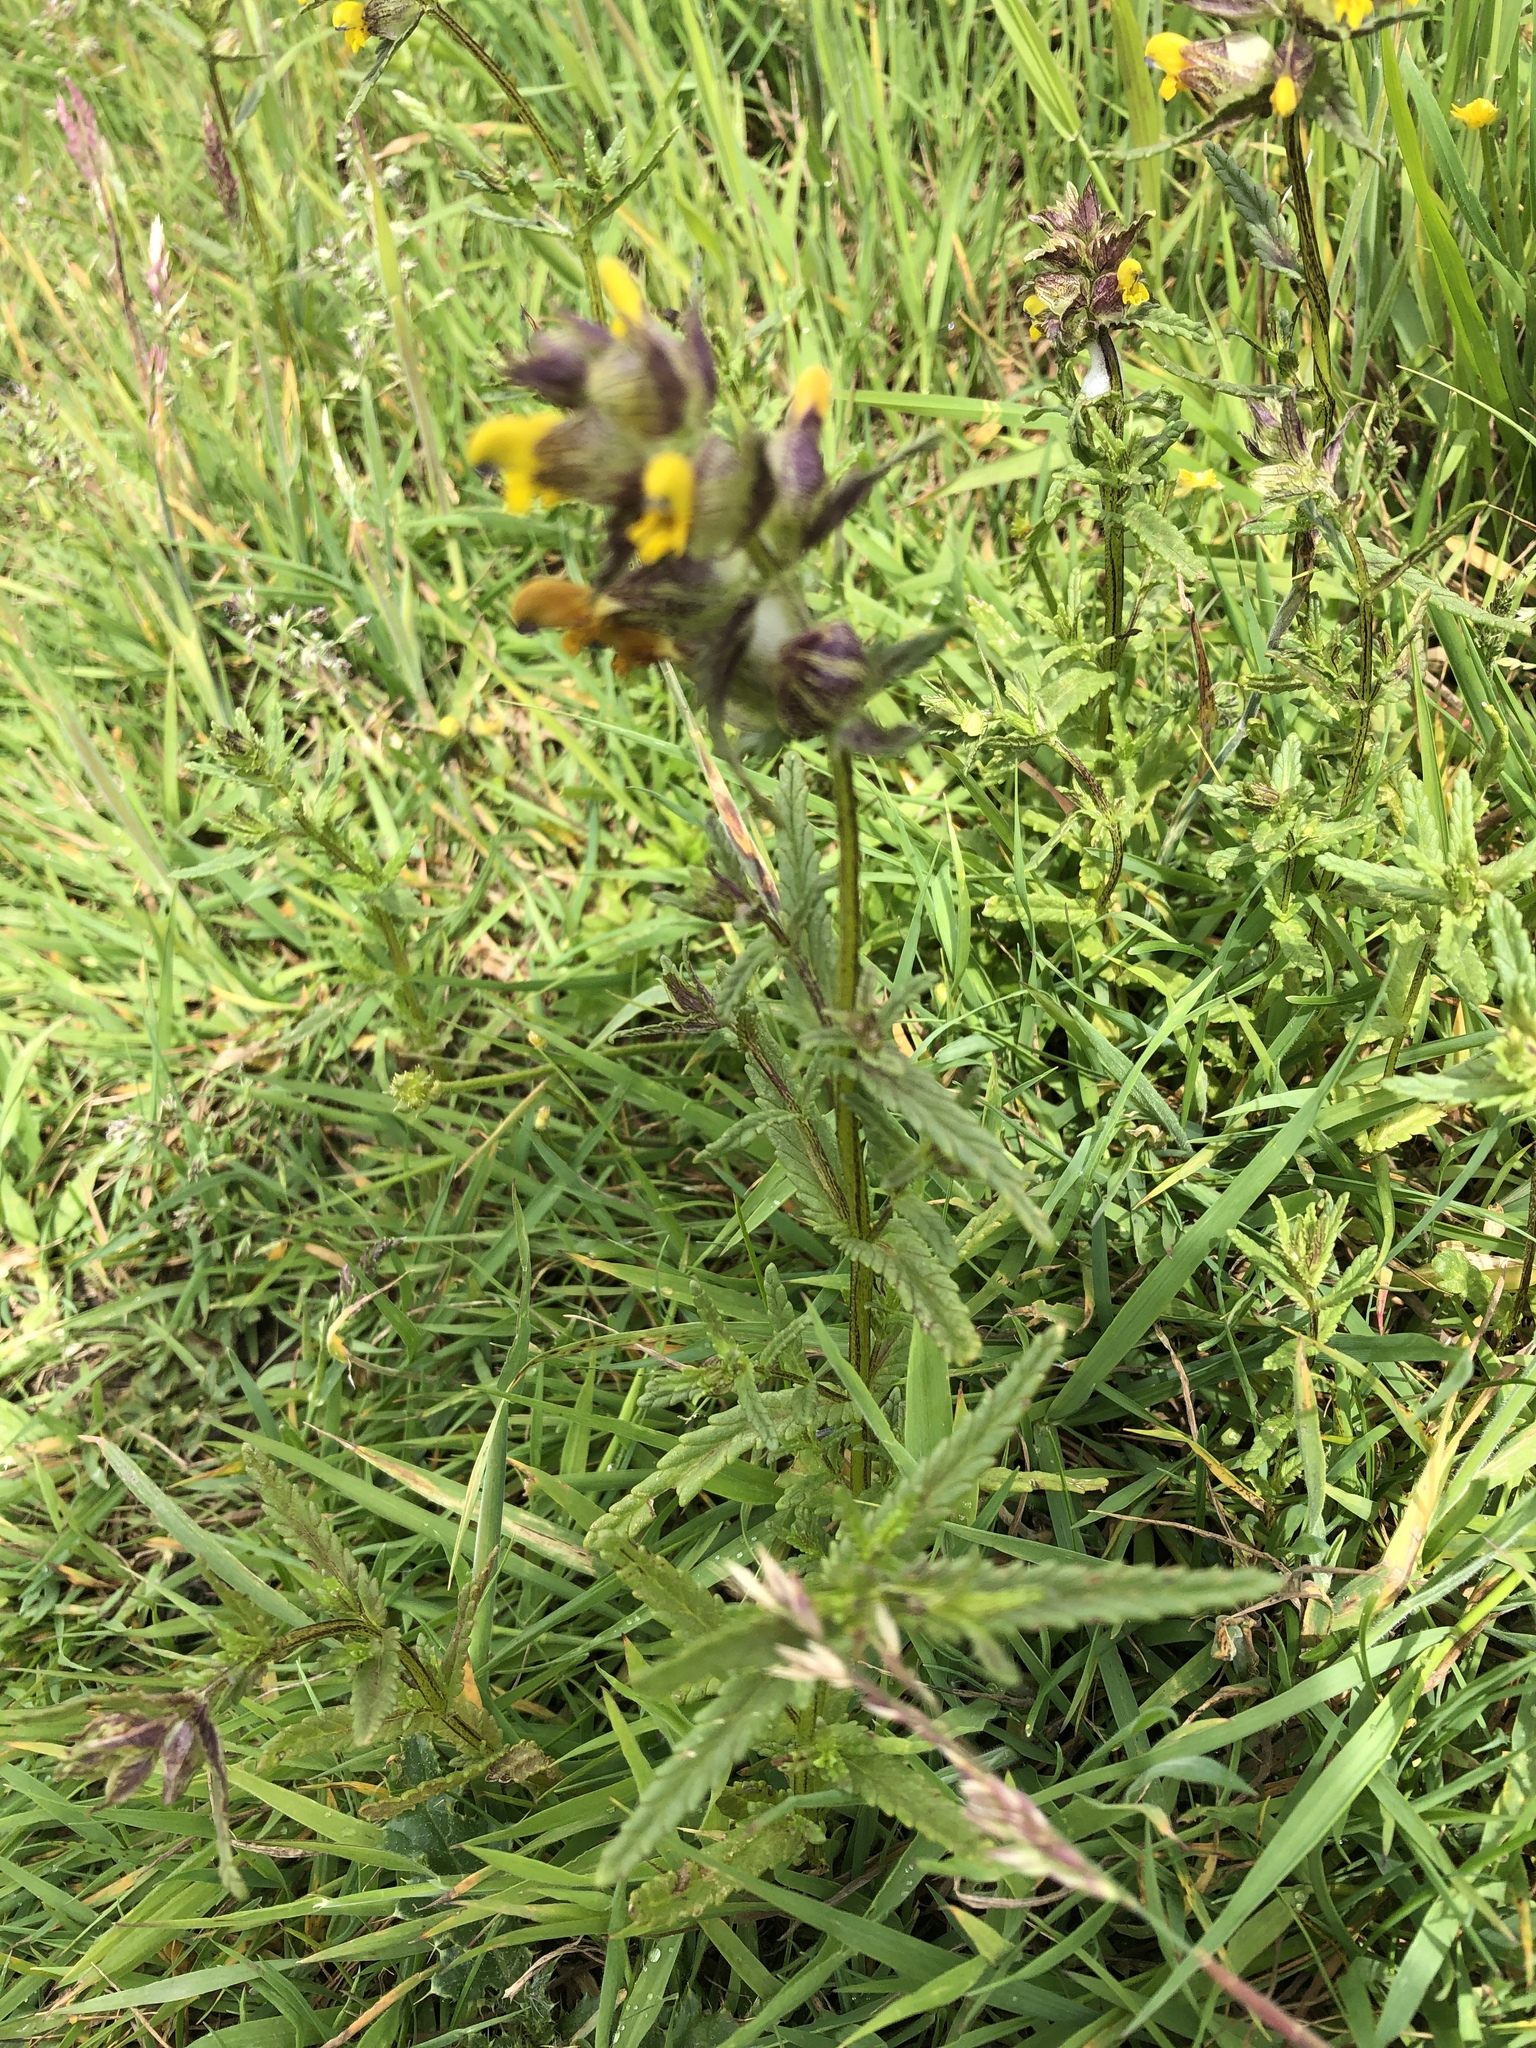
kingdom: Plantae
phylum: Tracheophyta
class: Magnoliopsida
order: Lamiales
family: Orobanchaceae
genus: Rhinanthus
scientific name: Rhinanthus minor
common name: Yellow-rattle
